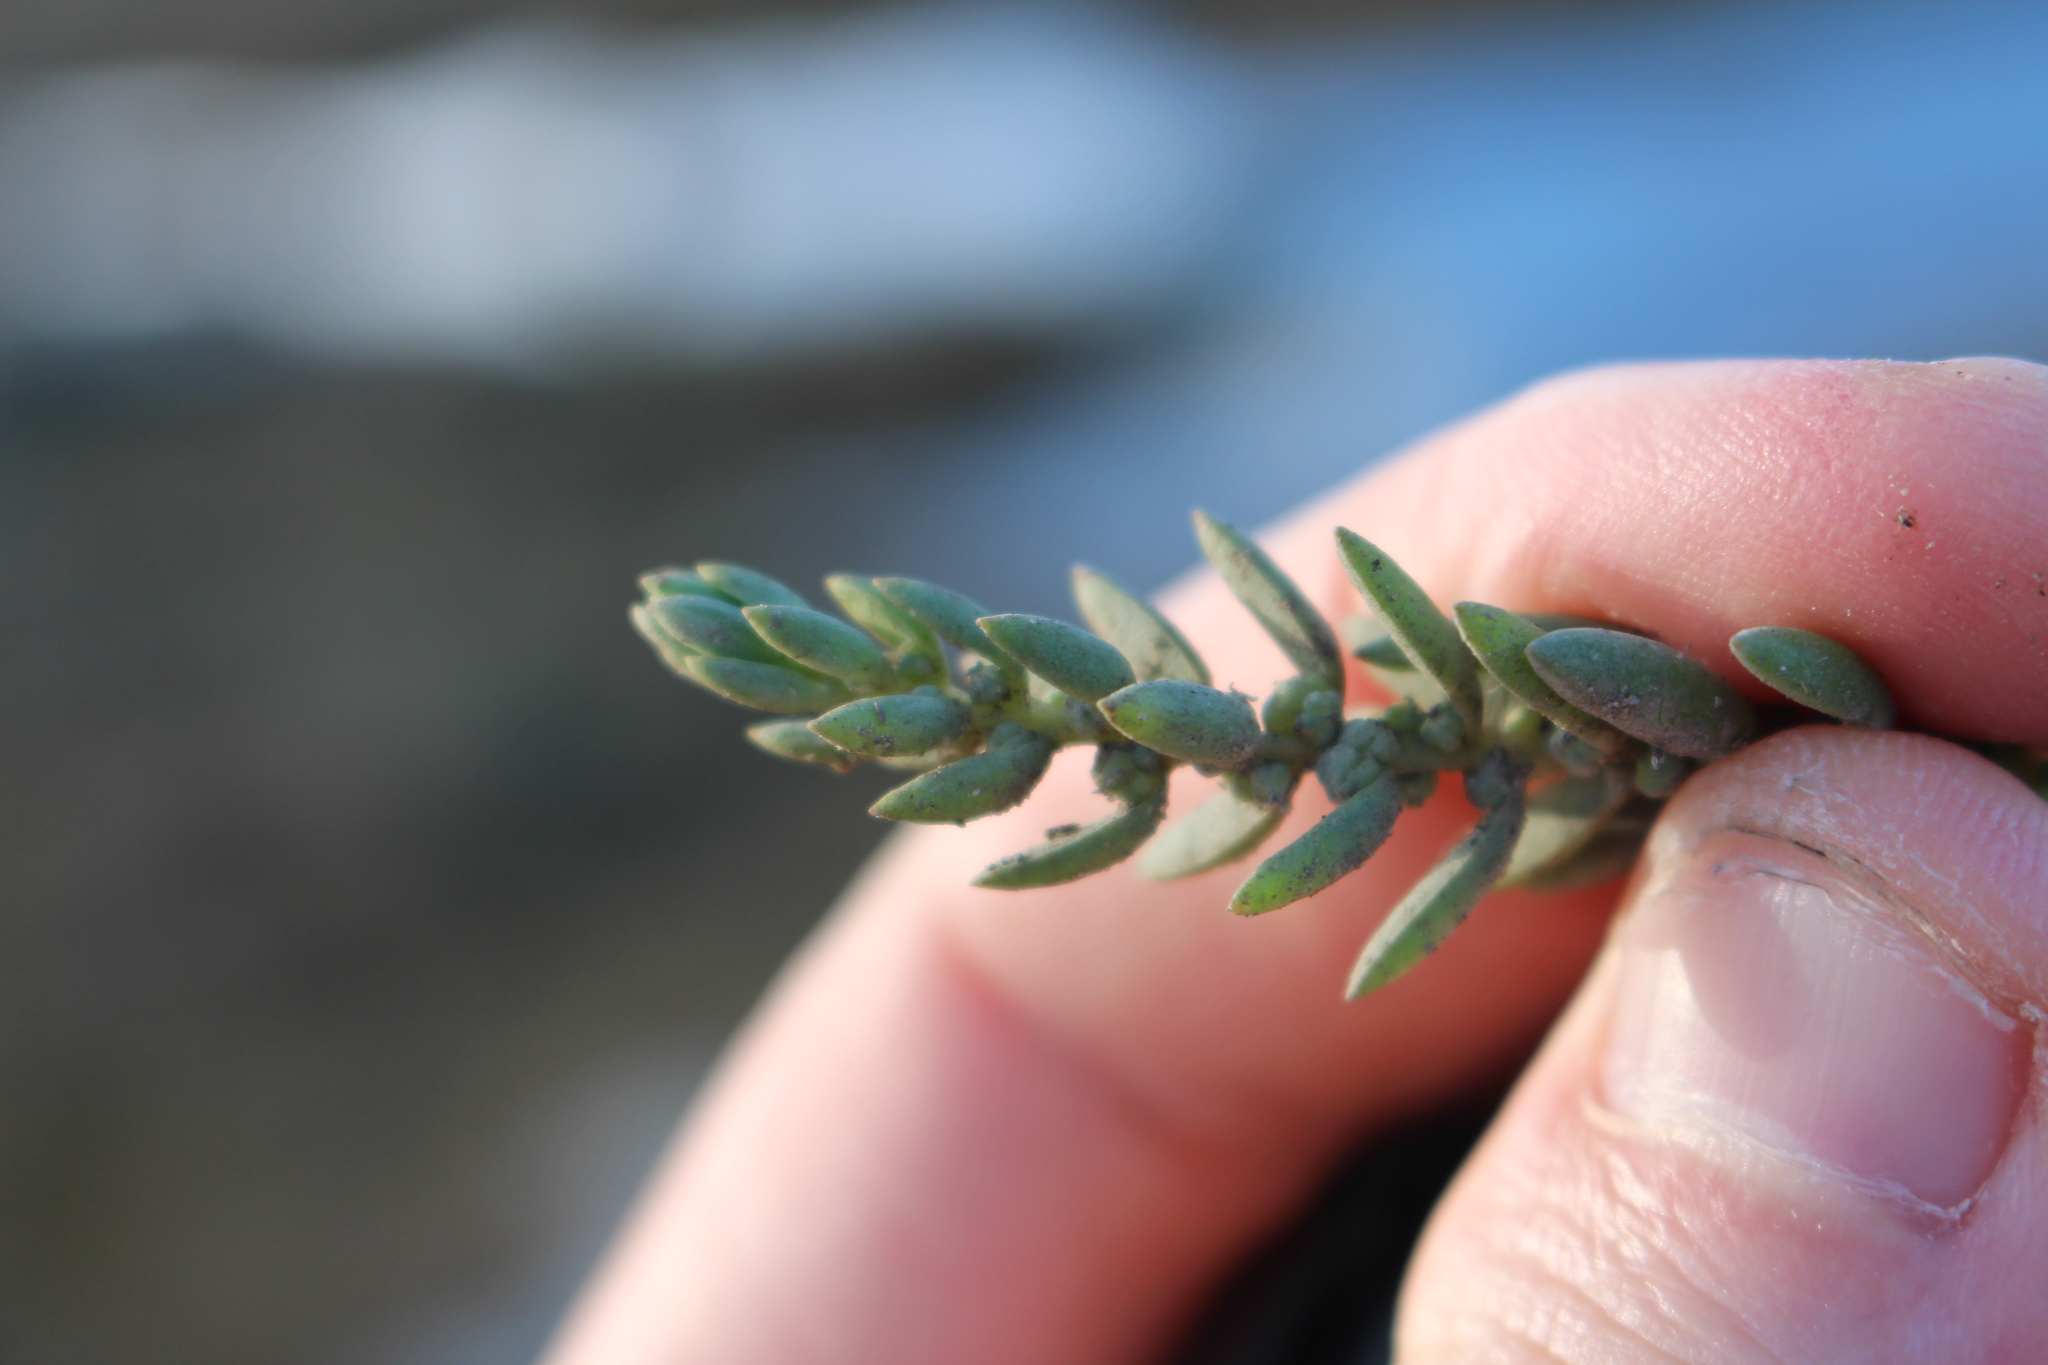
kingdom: Plantae
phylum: Tracheophyta
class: Magnoliopsida
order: Caryophyllales
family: Amaranthaceae
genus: Suaeda
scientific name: Suaeda novae-zelandiae
